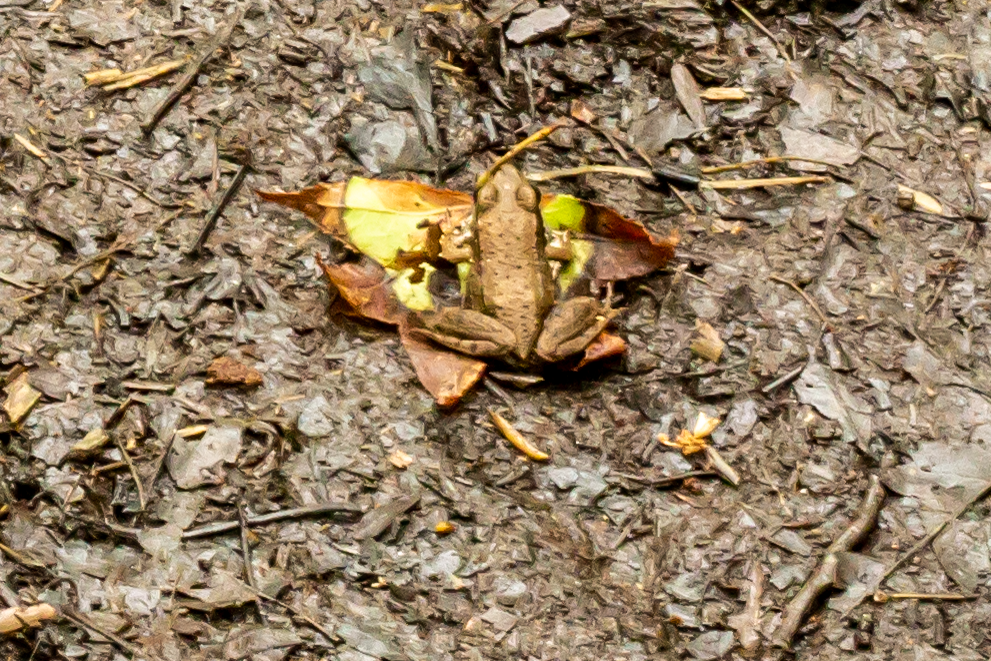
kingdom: Animalia
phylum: Chordata
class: Amphibia
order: Anura
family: Ranidae
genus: Lithobates
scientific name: Lithobates clamitans
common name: Green frog
